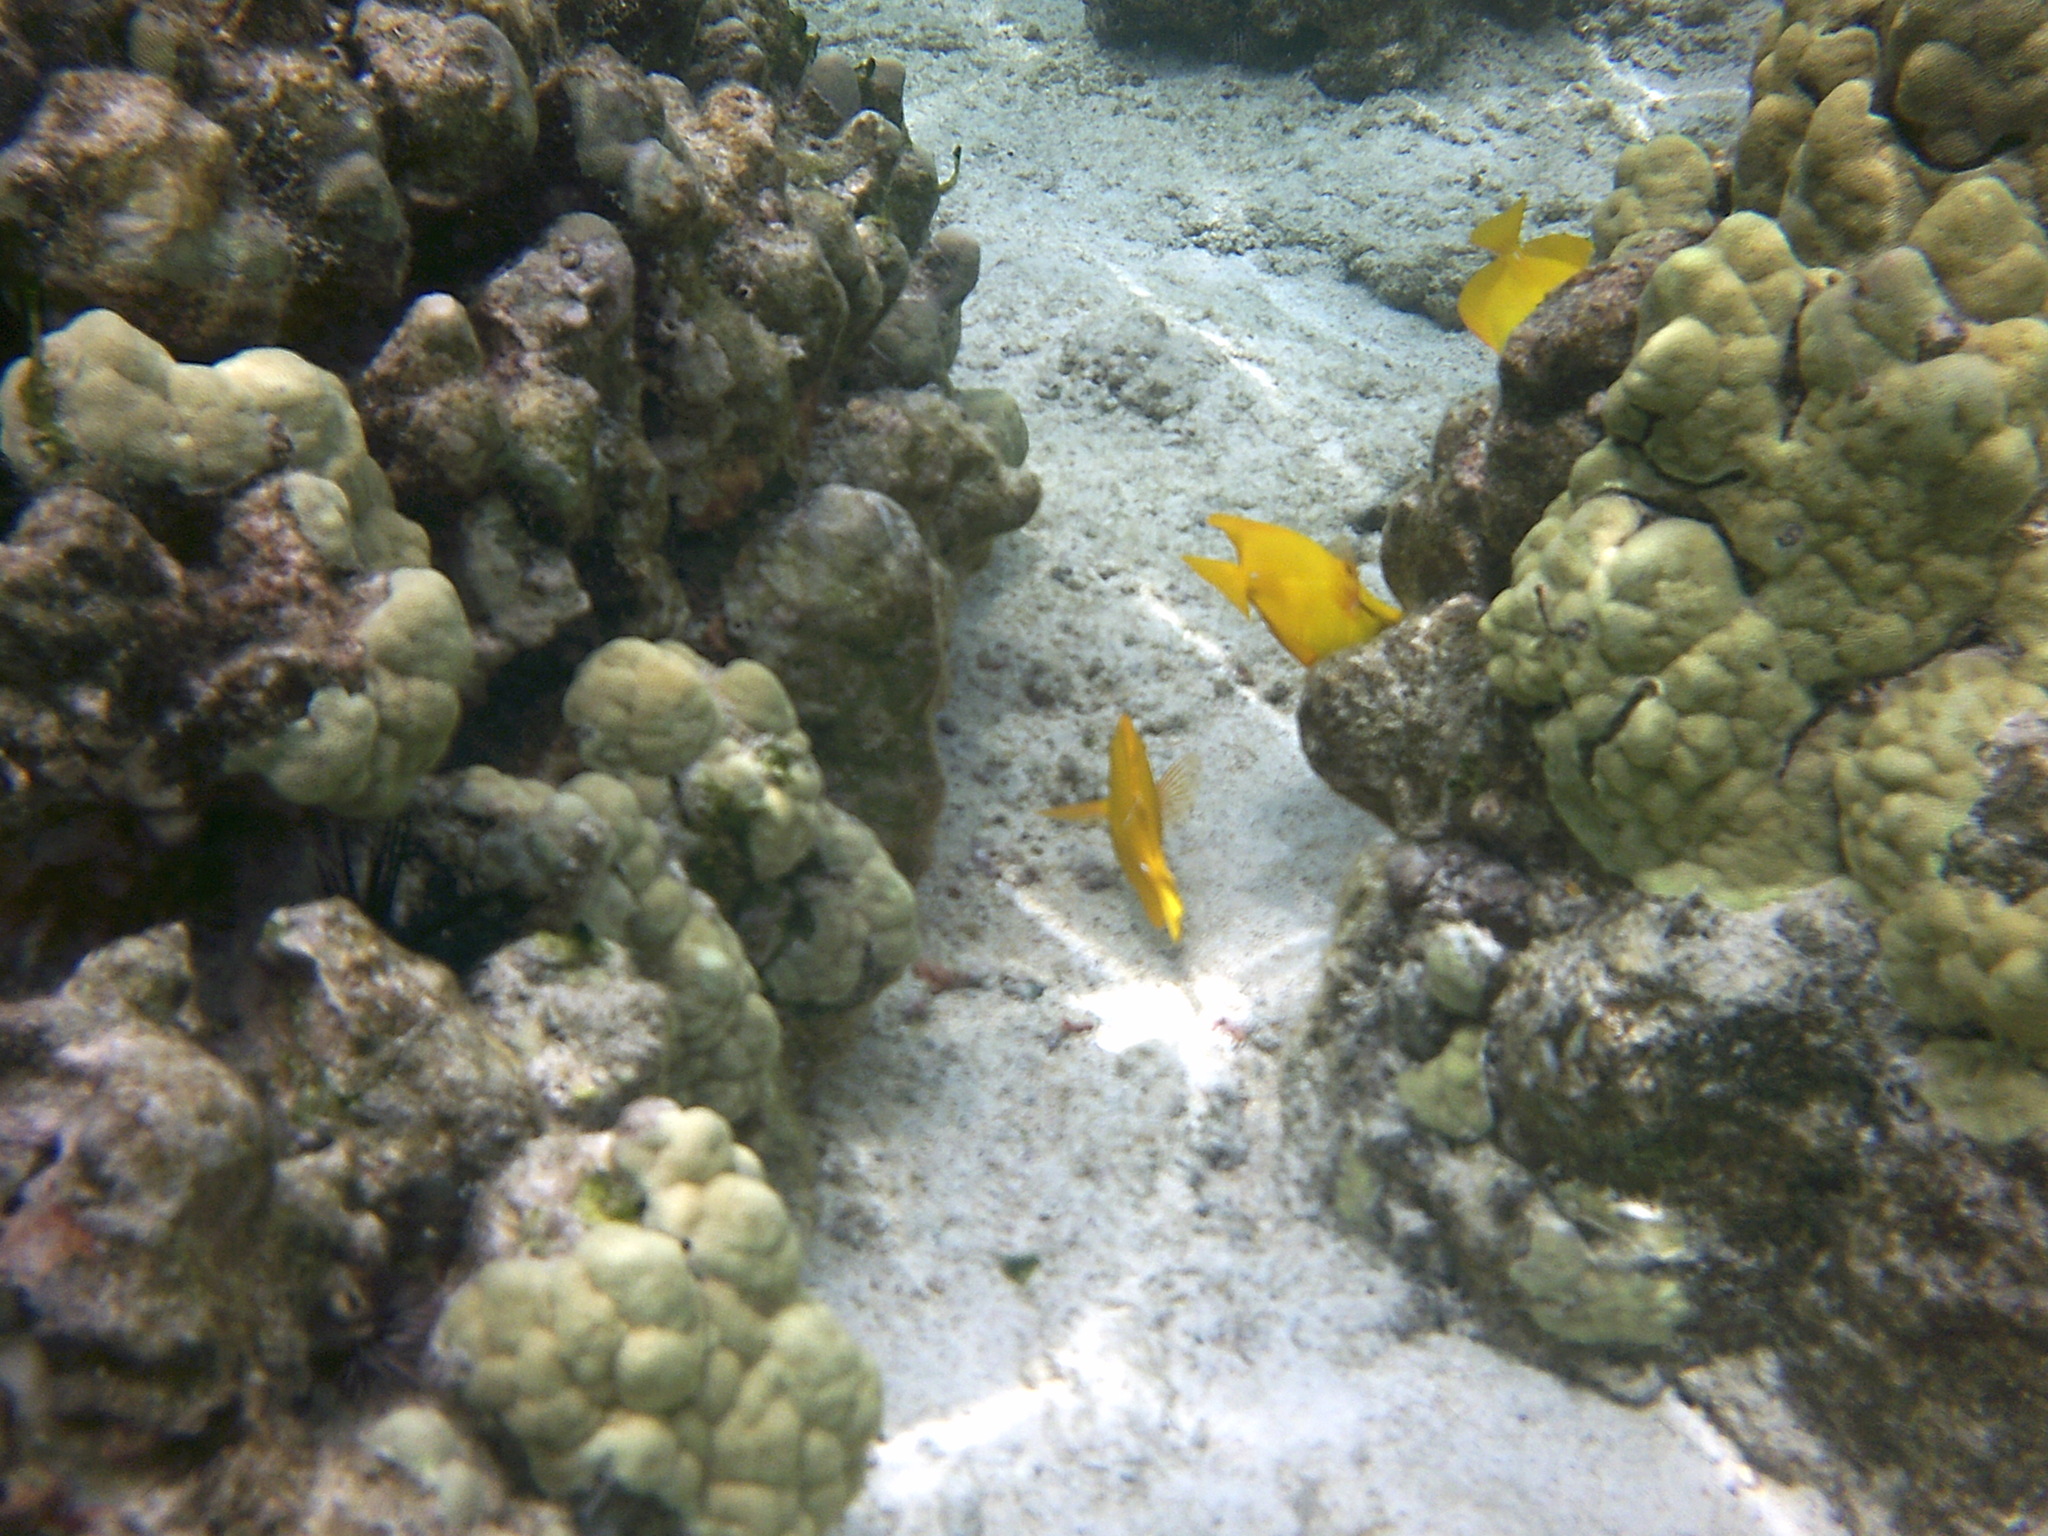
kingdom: Animalia
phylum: Chordata
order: Perciformes
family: Acanthuridae
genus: Zebrasoma
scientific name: Zebrasoma flavescens
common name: Yellow tang
